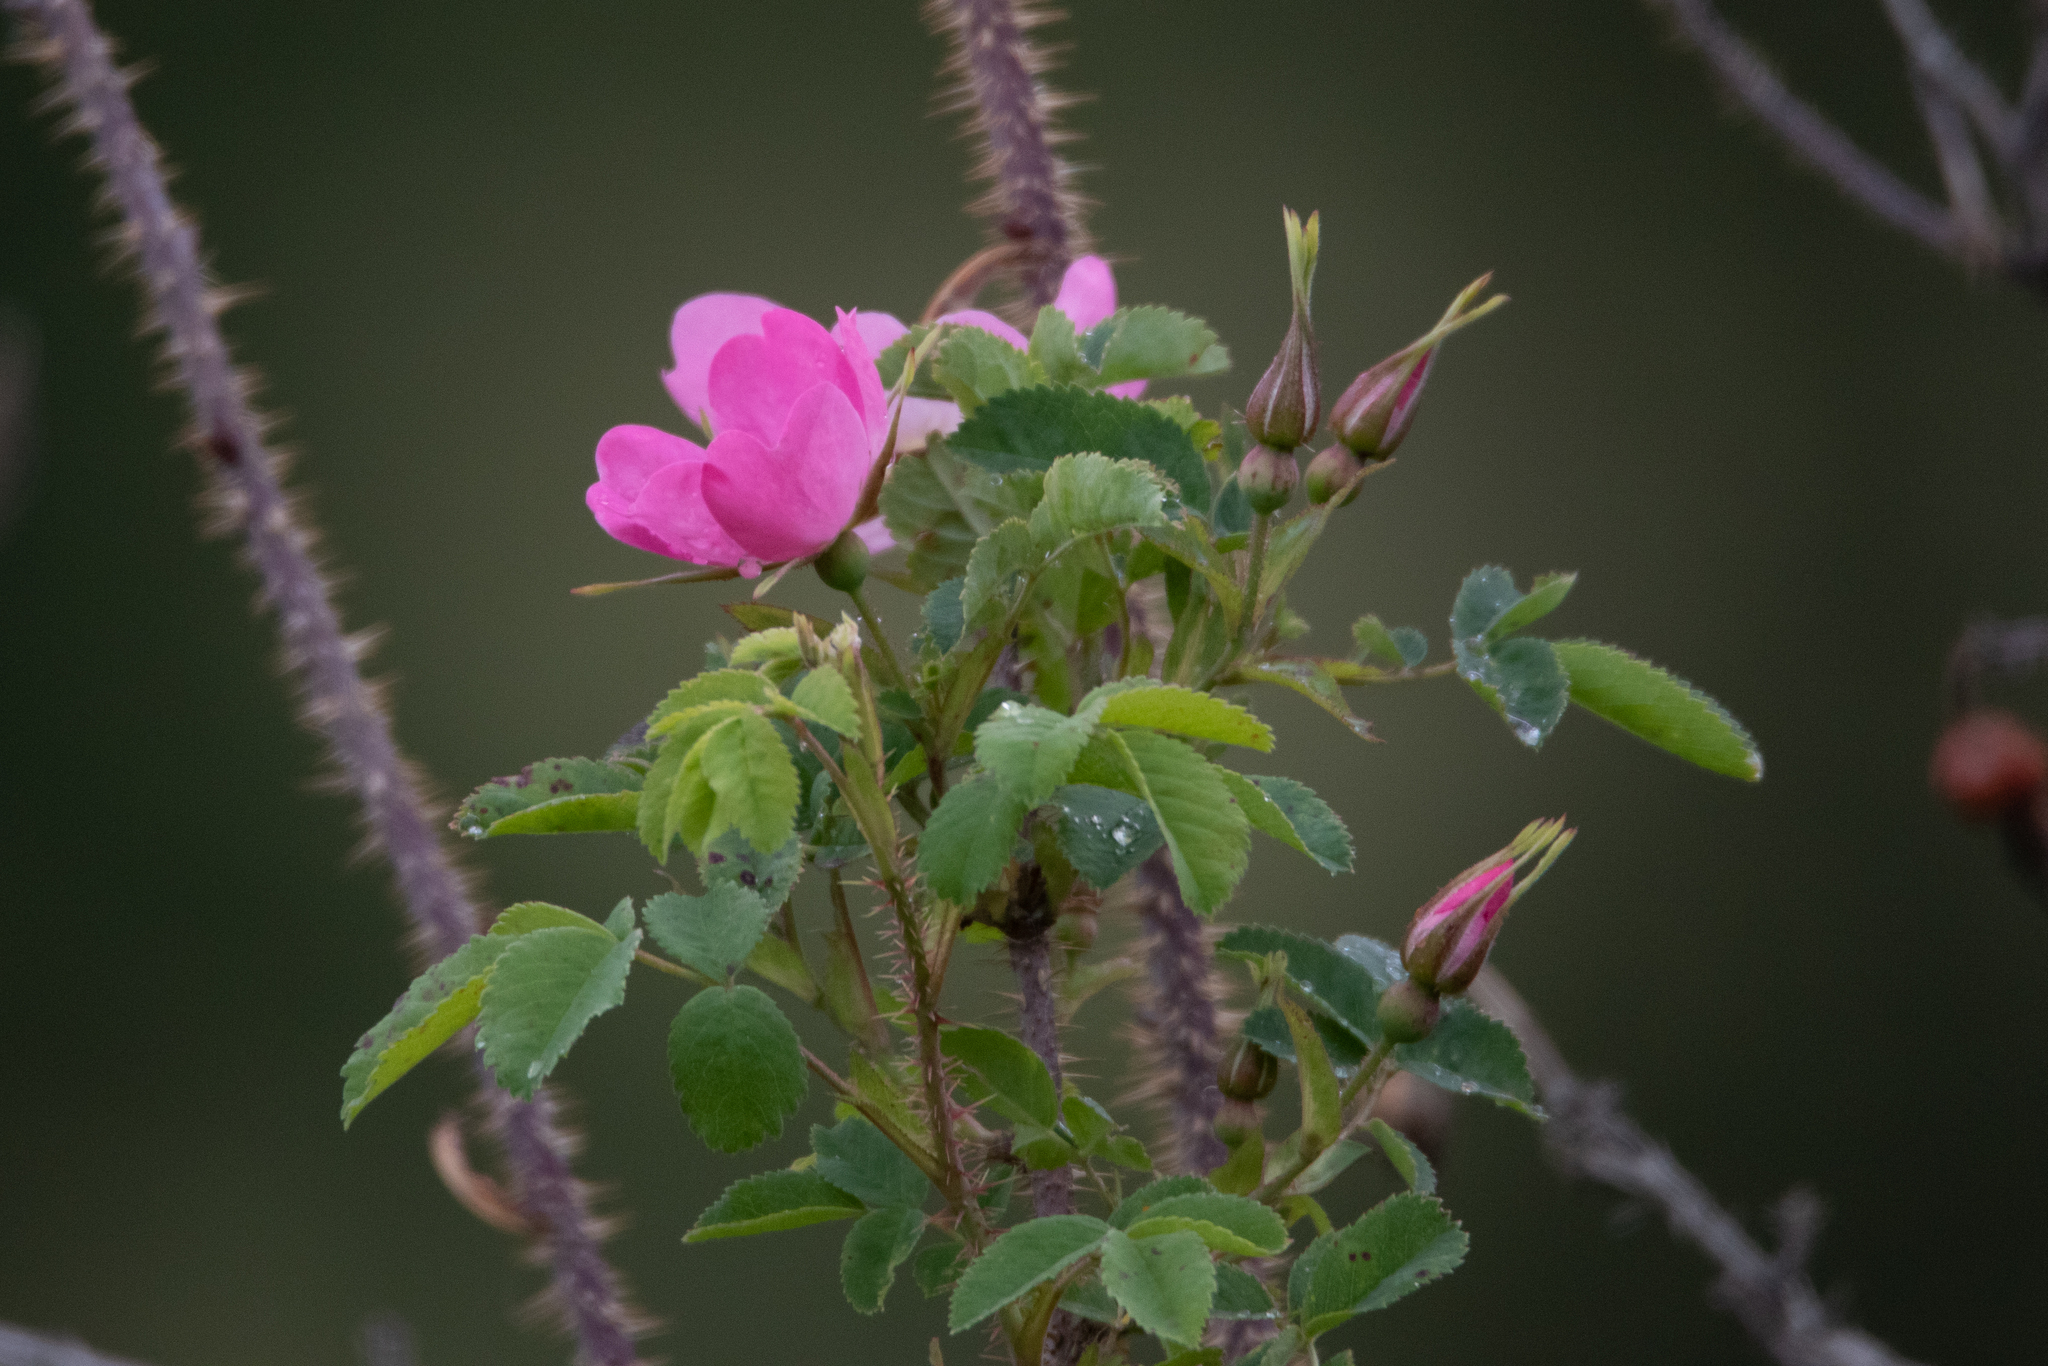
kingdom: Plantae
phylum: Tracheophyta
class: Magnoliopsida
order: Rosales
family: Rosaceae
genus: Rosa
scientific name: Rosa acicularis
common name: Prickly rose
